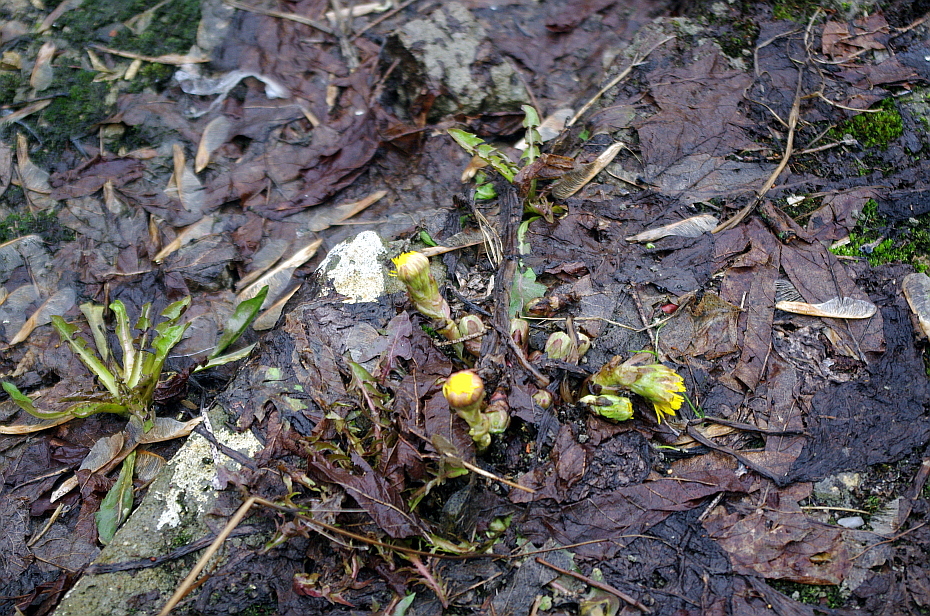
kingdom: Plantae
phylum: Tracheophyta
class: Magnoliopsida
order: Asterales
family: Asteraceae
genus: Tussilago
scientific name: Tussilago farfara
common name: Coltsfoot
